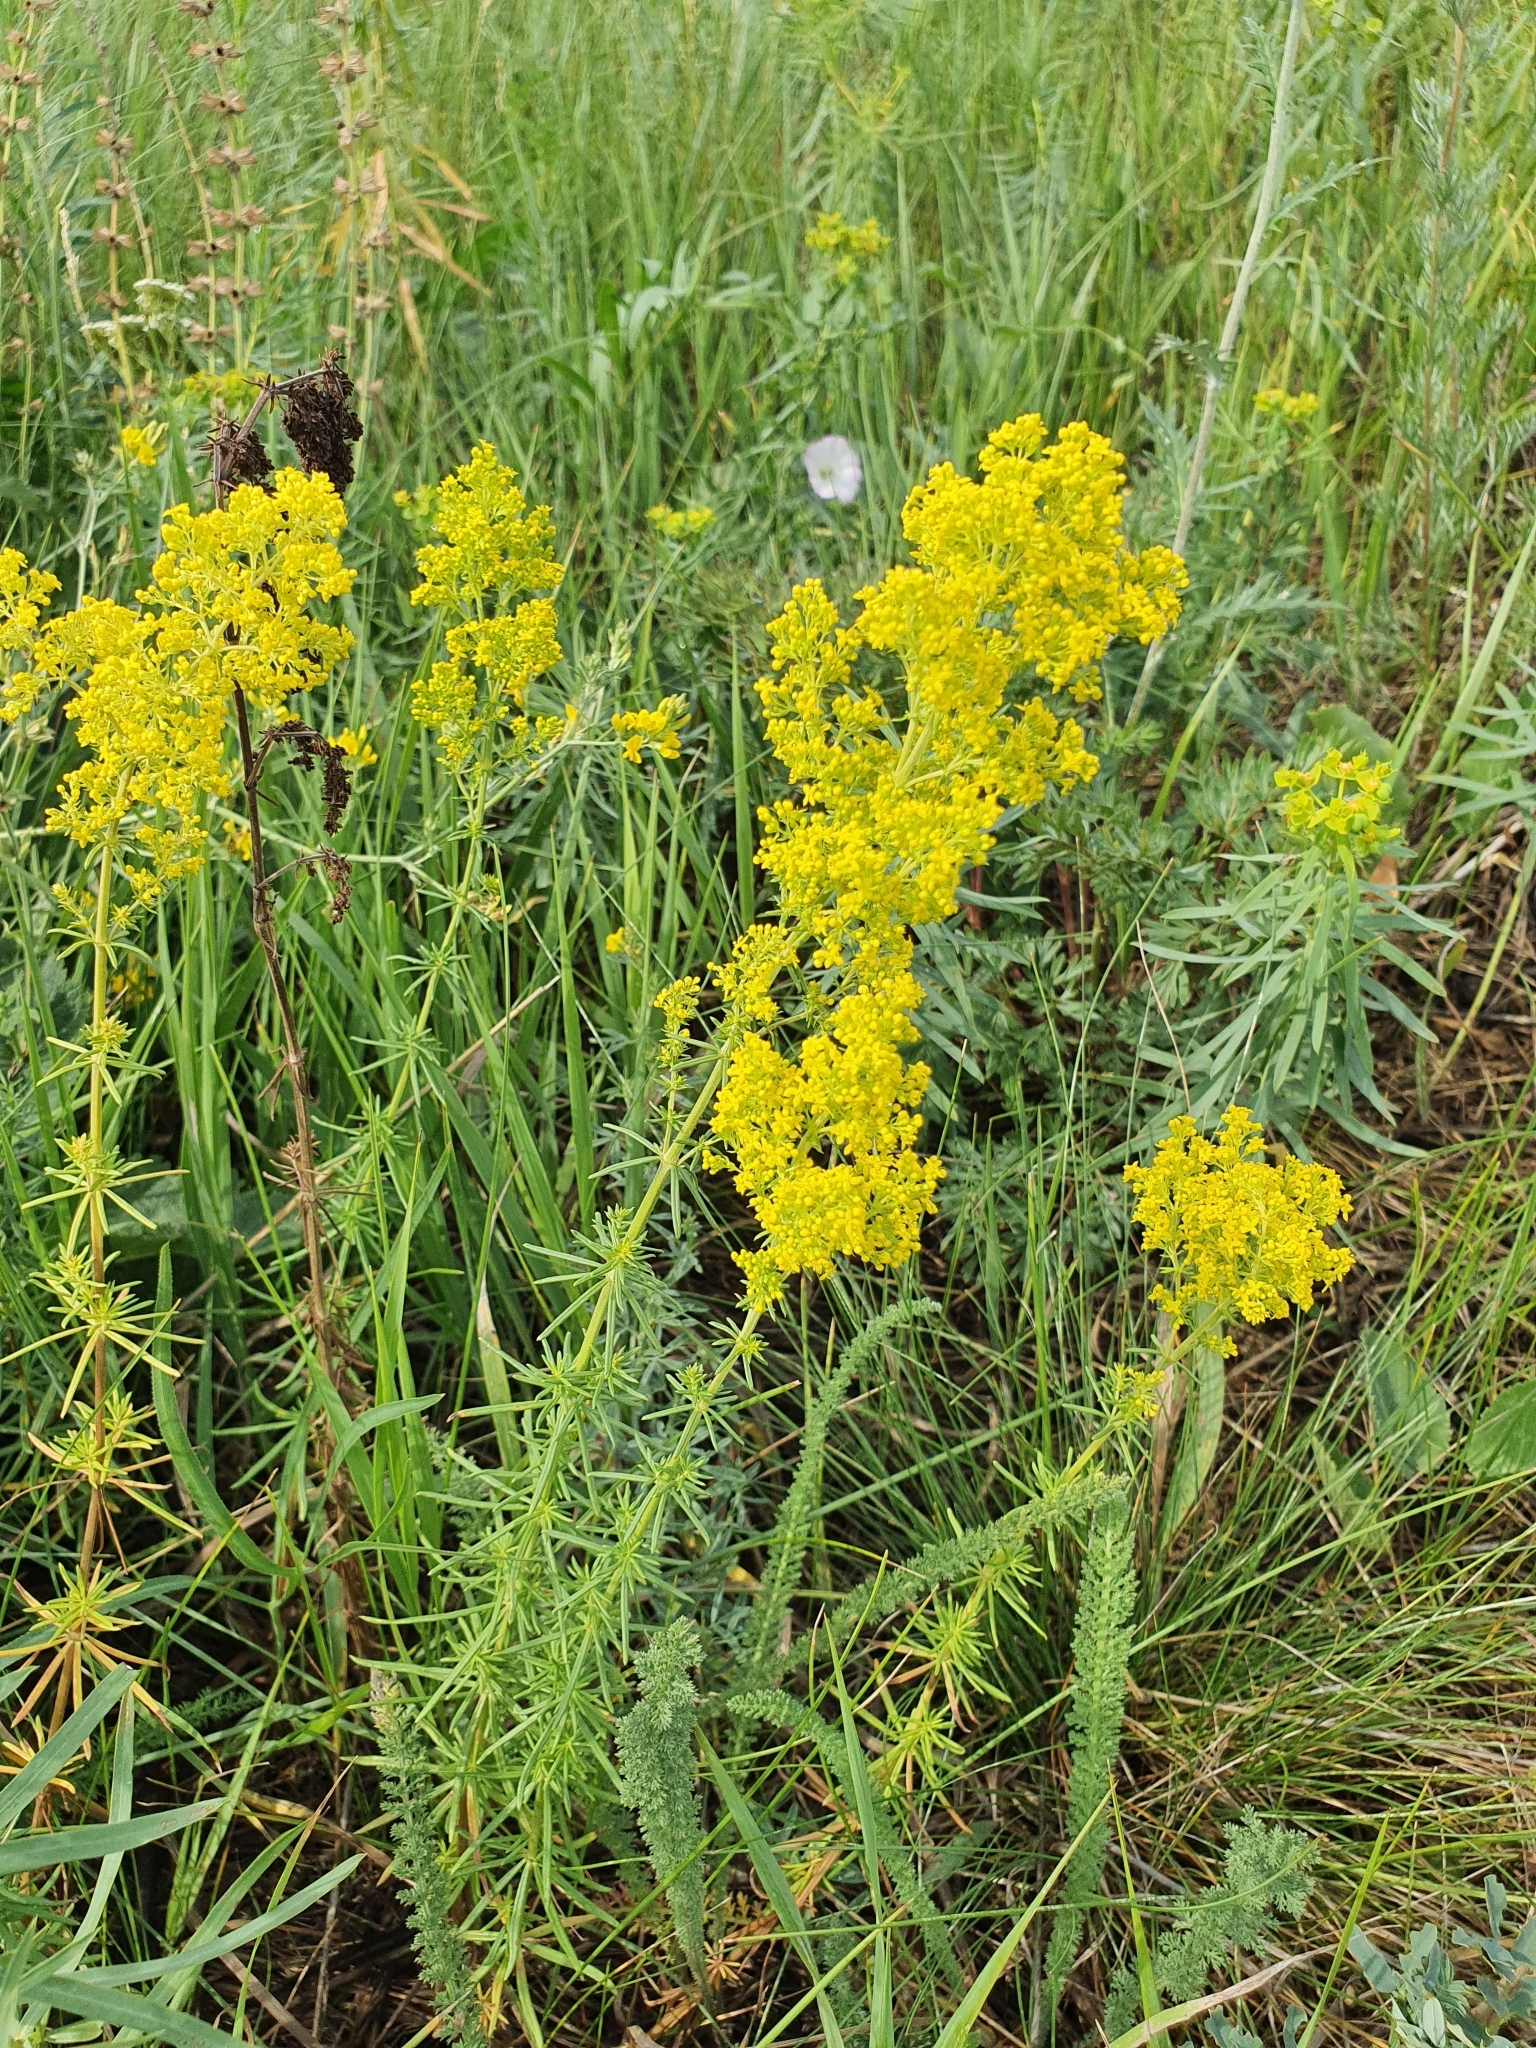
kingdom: Plantae
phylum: Tracheophyta
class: Magnoliopsida
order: Gentianales
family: Rubiaceae
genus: Galium
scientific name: Galium verum
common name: Lady's bedstraw
